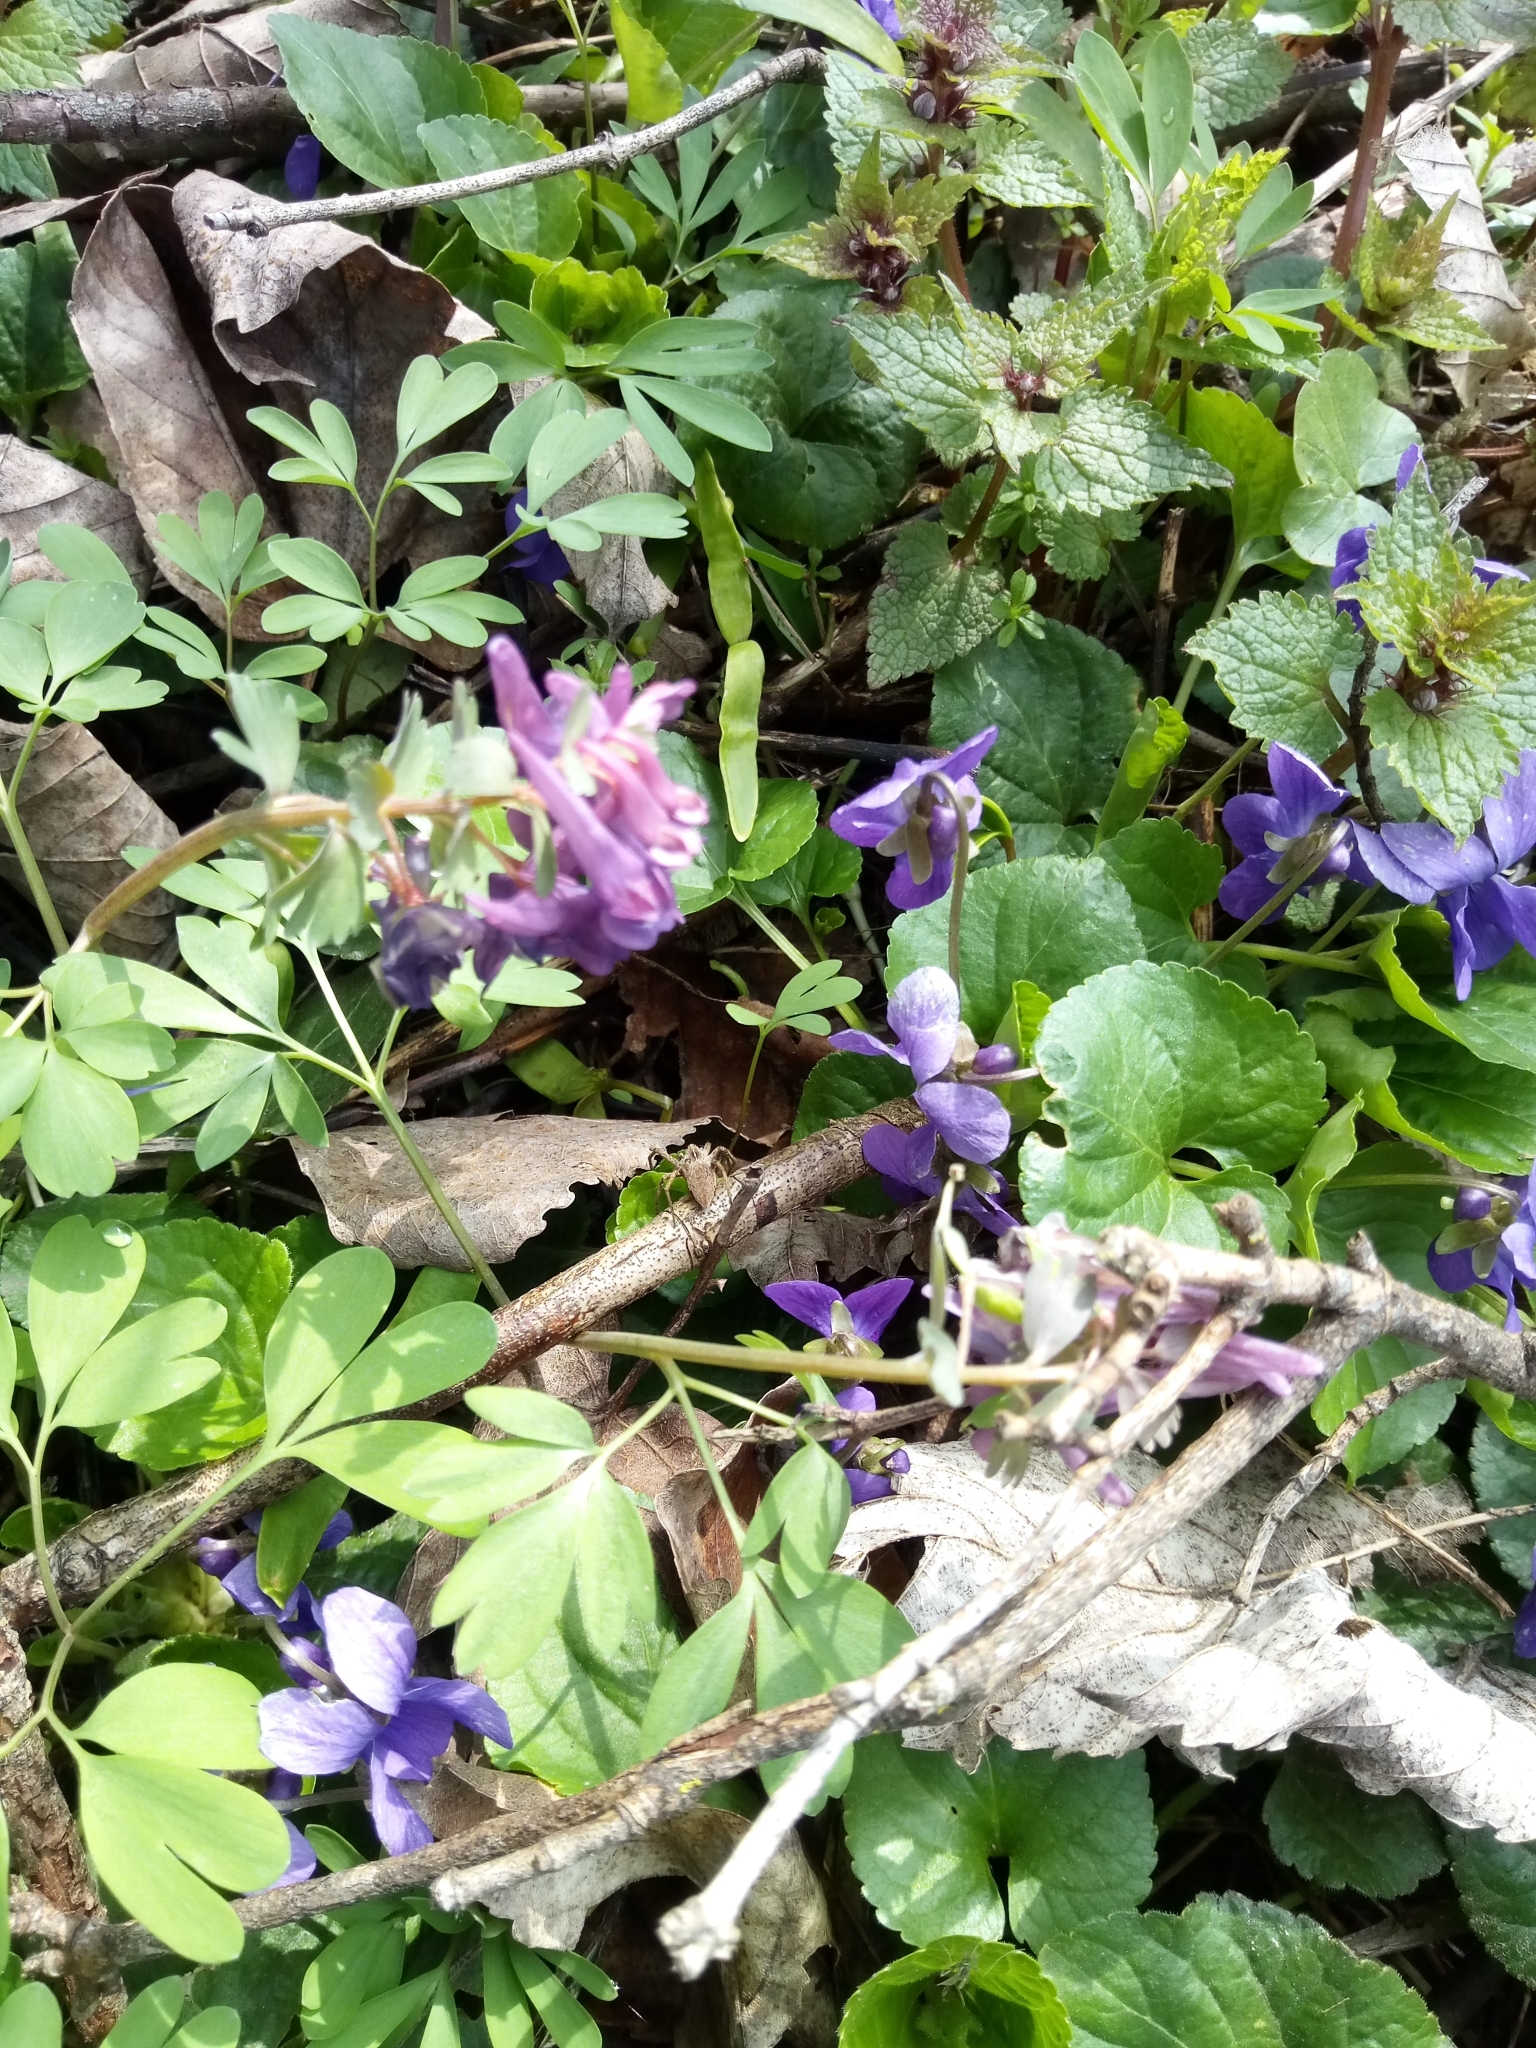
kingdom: Plantae
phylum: Tracheophyta
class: Magnoliopsida
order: Malpighiales
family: Violaceae
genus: Viola
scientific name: Viola odorata
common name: Sweet violet
